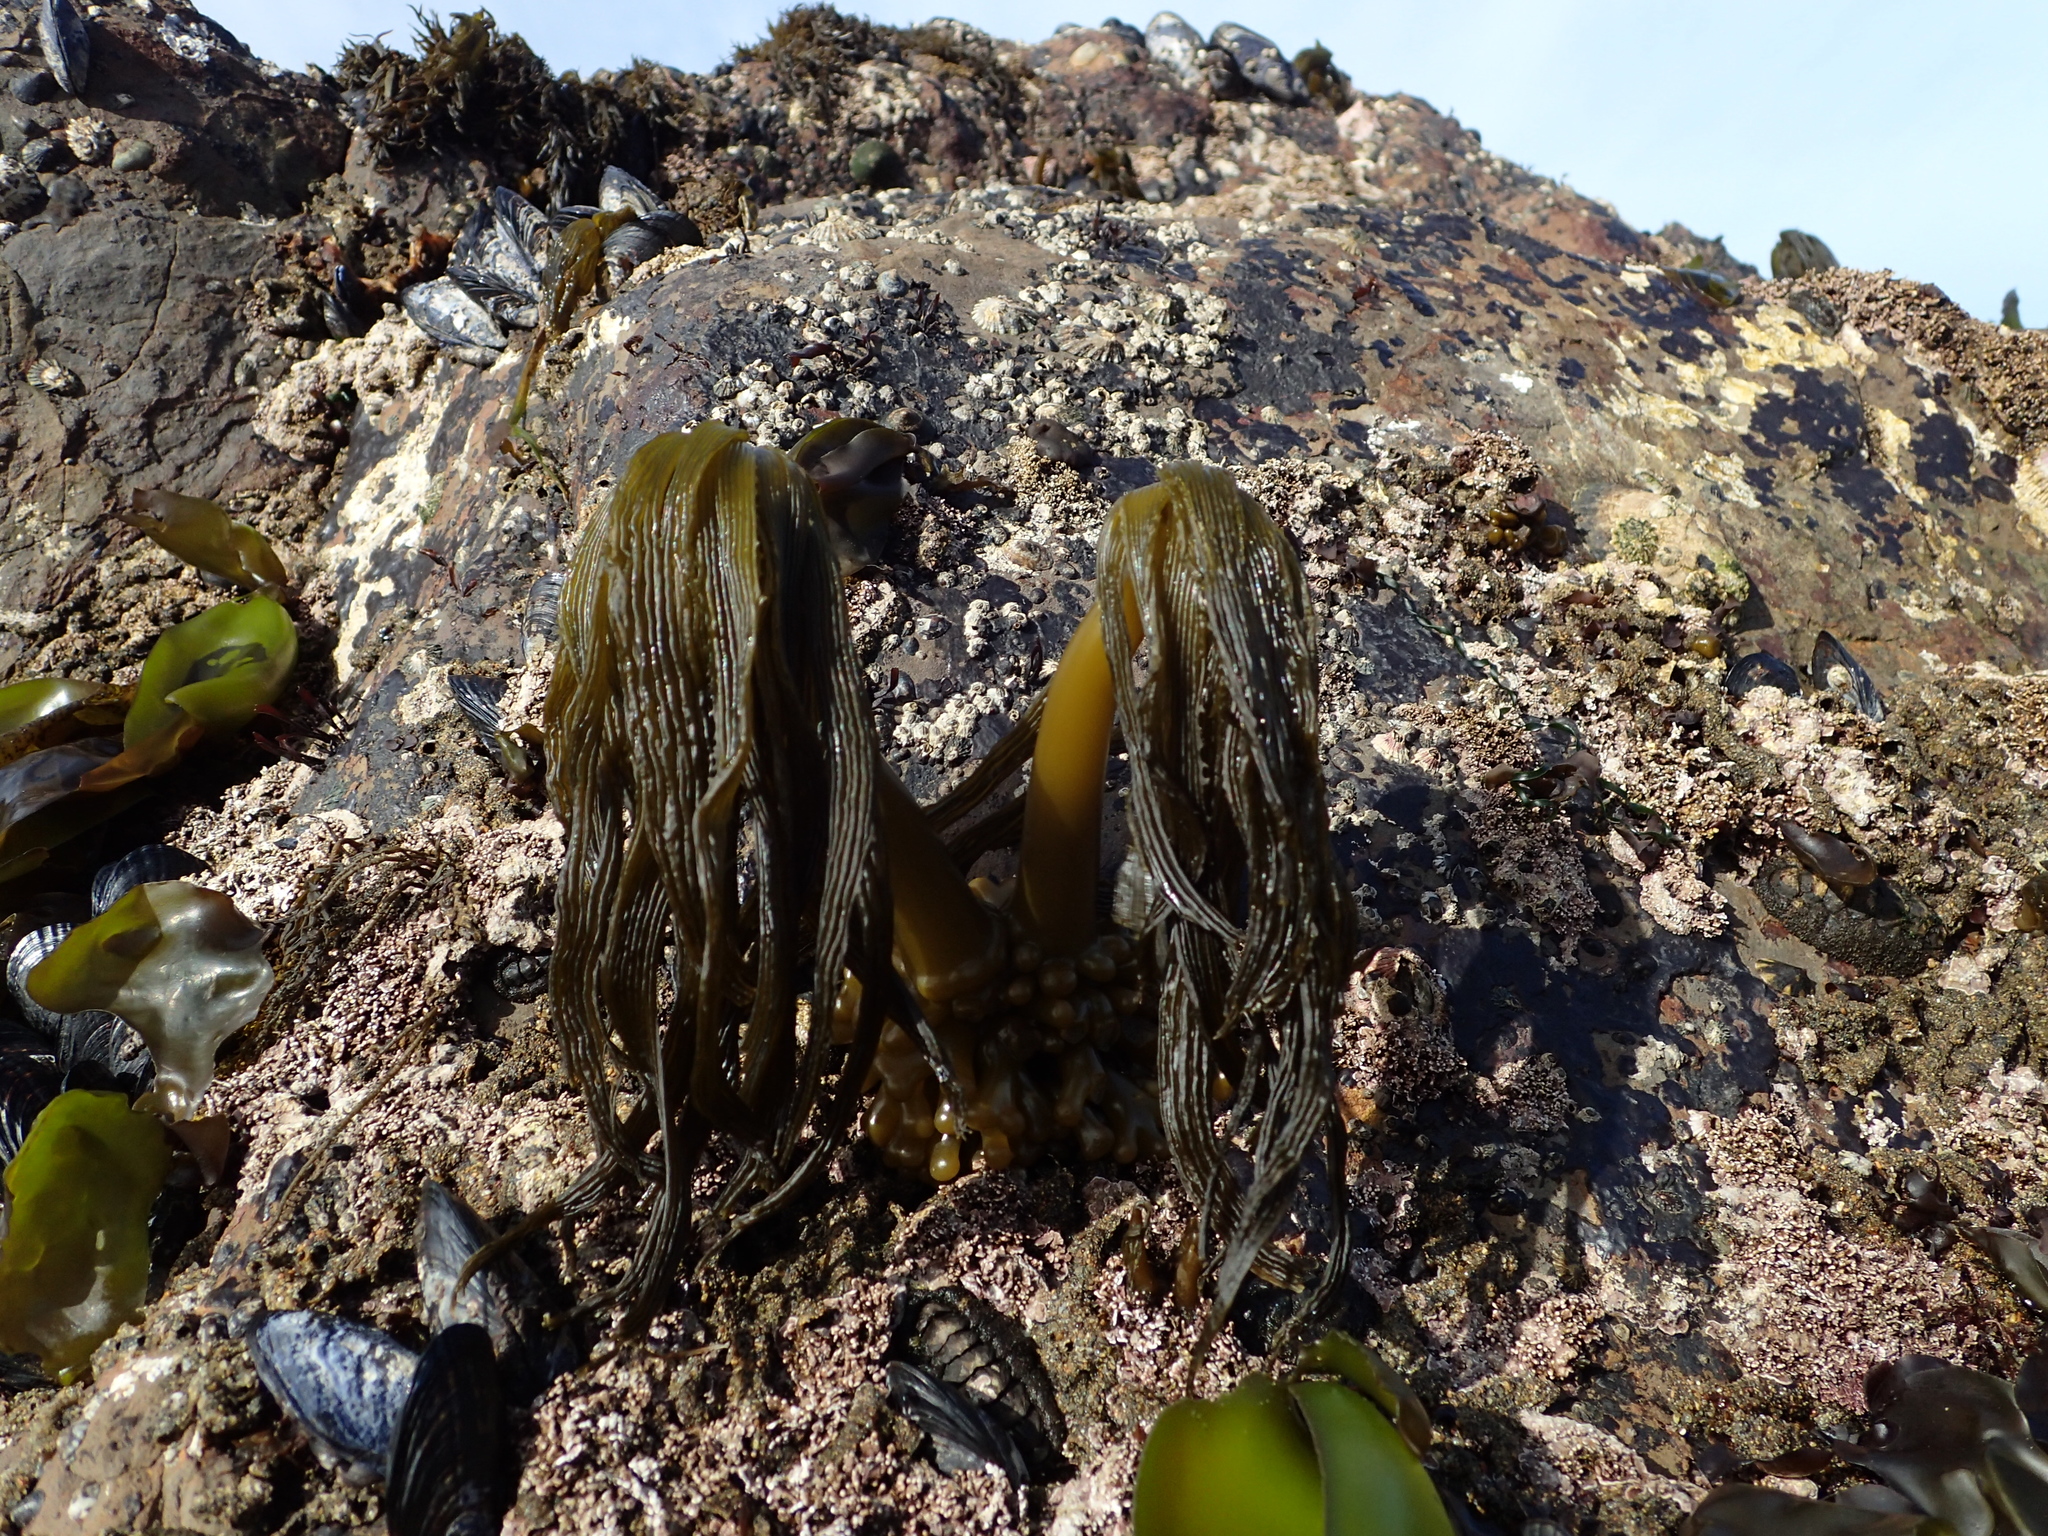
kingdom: Chromista
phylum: Ochrophyta
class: Phaeophyceae
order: Laminariales
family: Laminariaceae
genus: Postelsia
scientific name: Postelsia palmiformis
